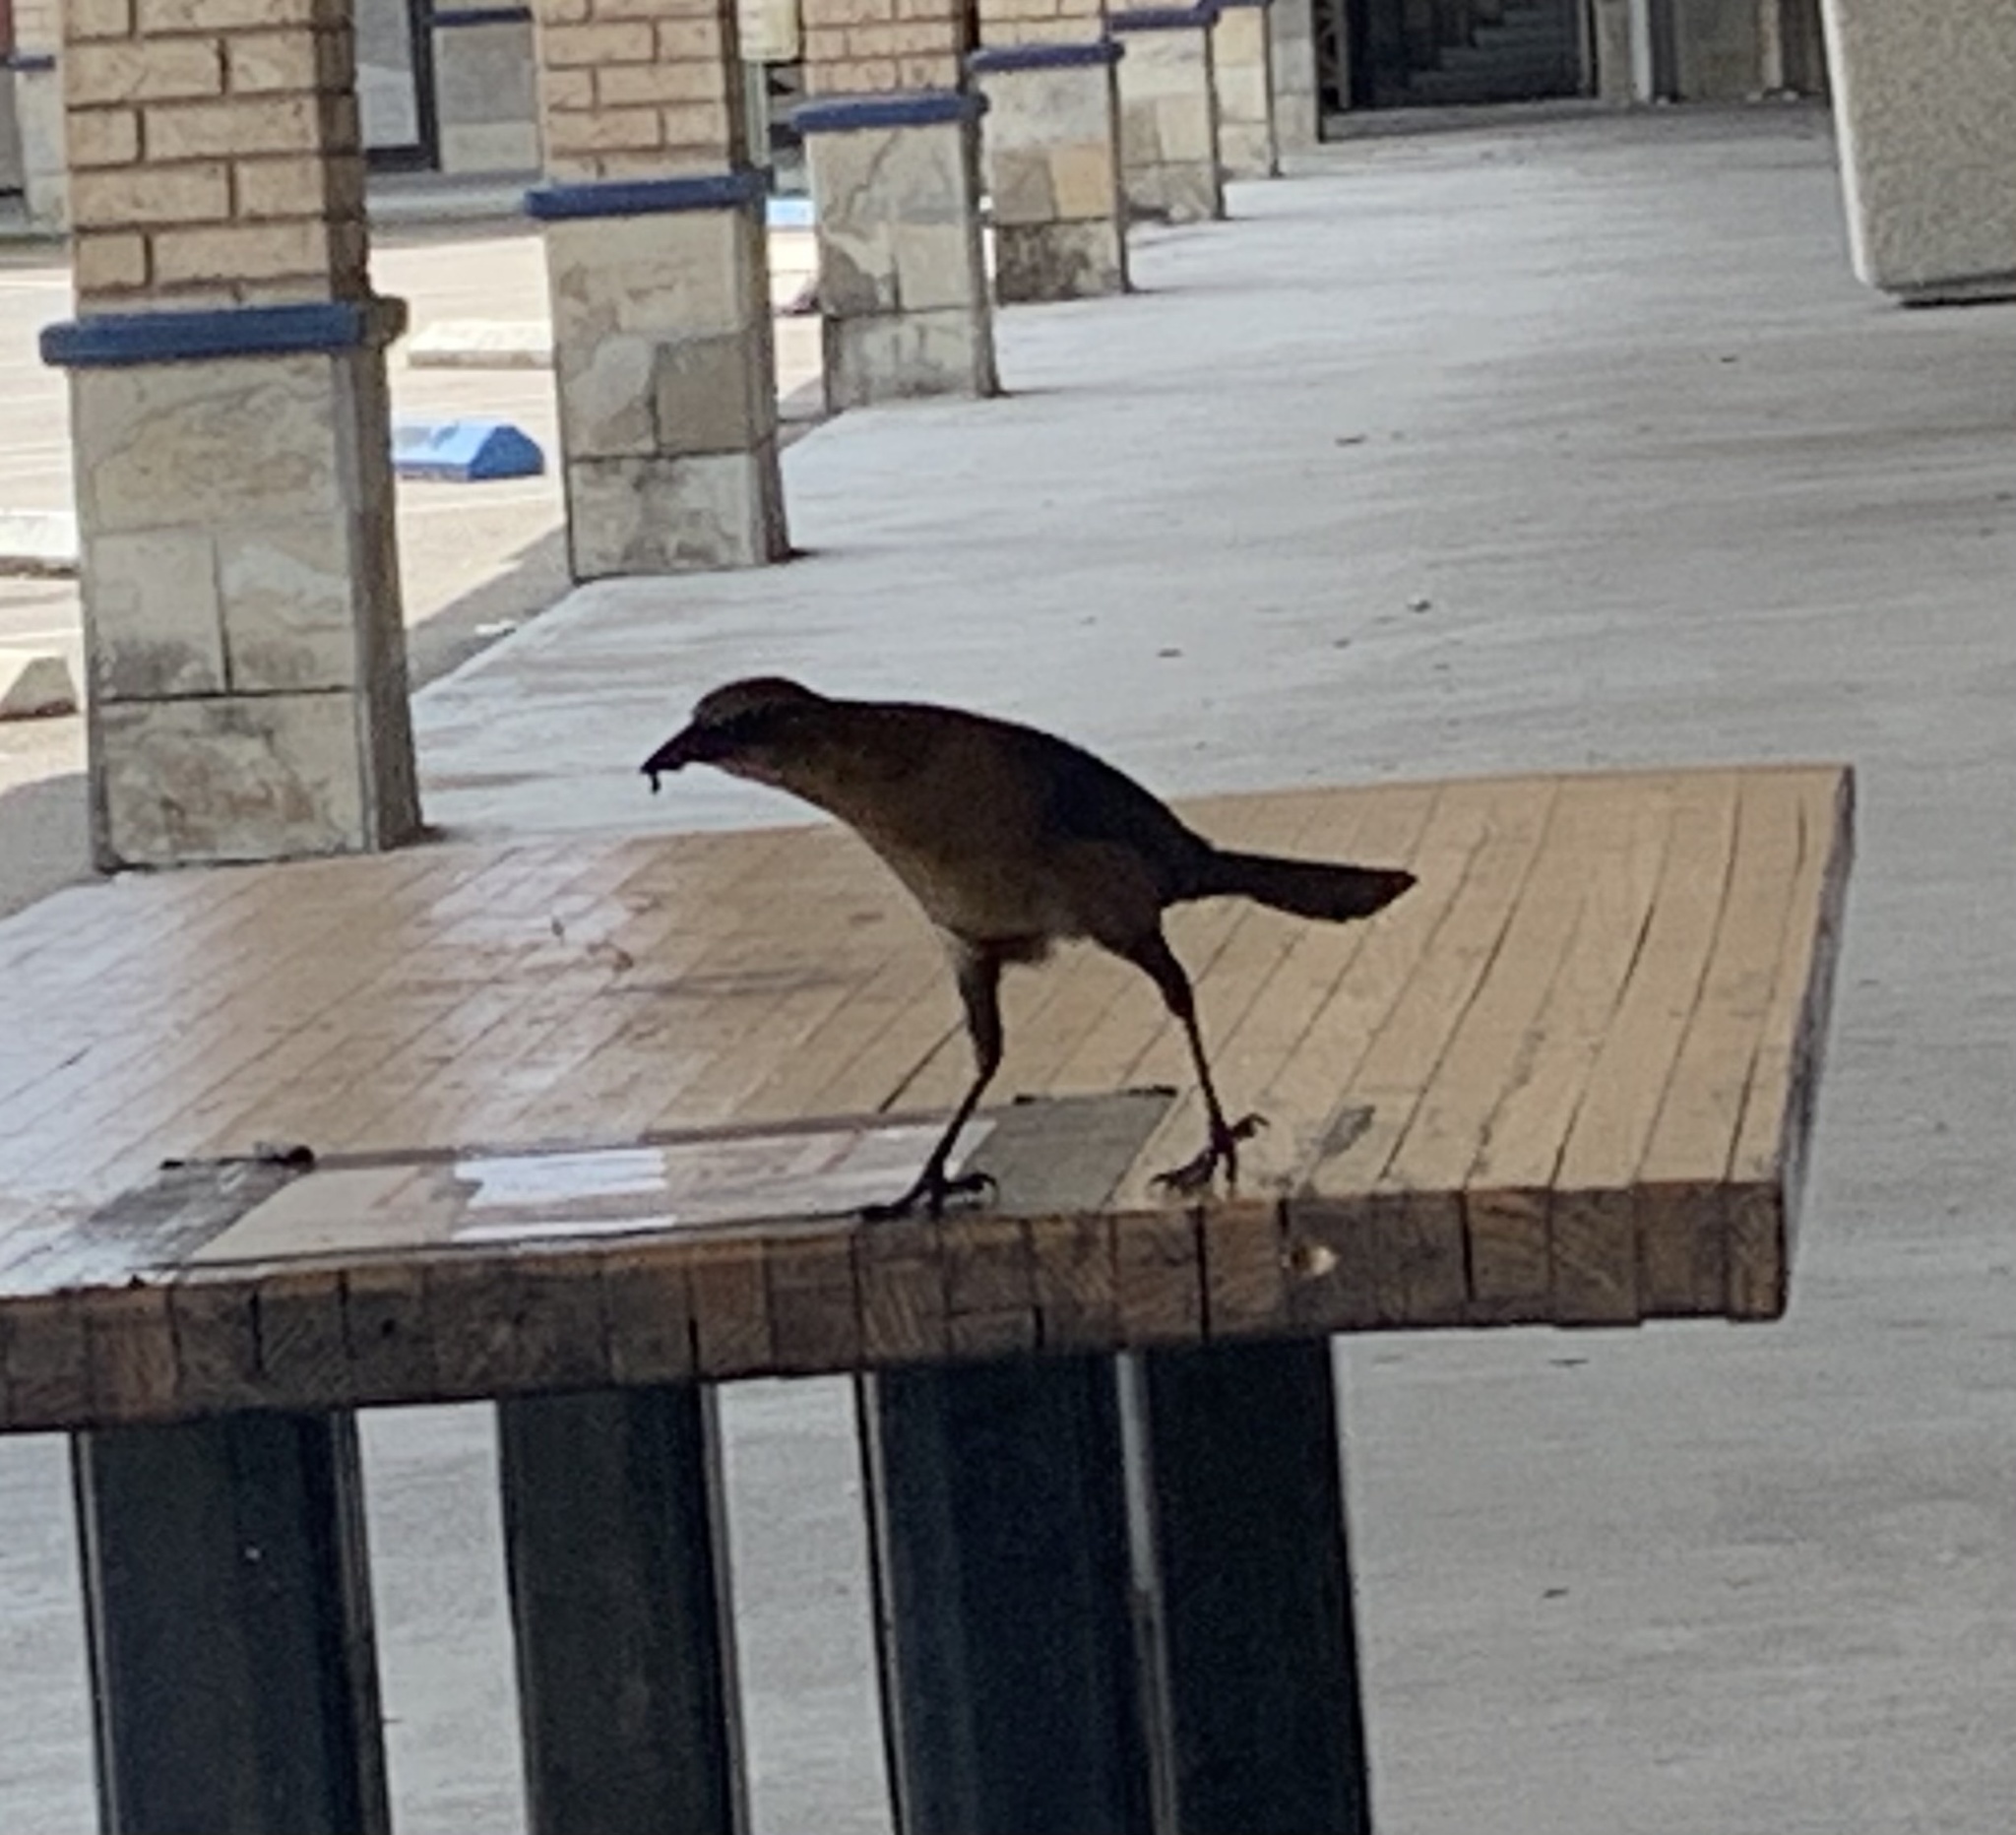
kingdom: Animalia
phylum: Chordata
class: Aves
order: Passeriformes
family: Icteridae
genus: Quiscalus
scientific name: Quiscalus major
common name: Boat-tailed grackle
